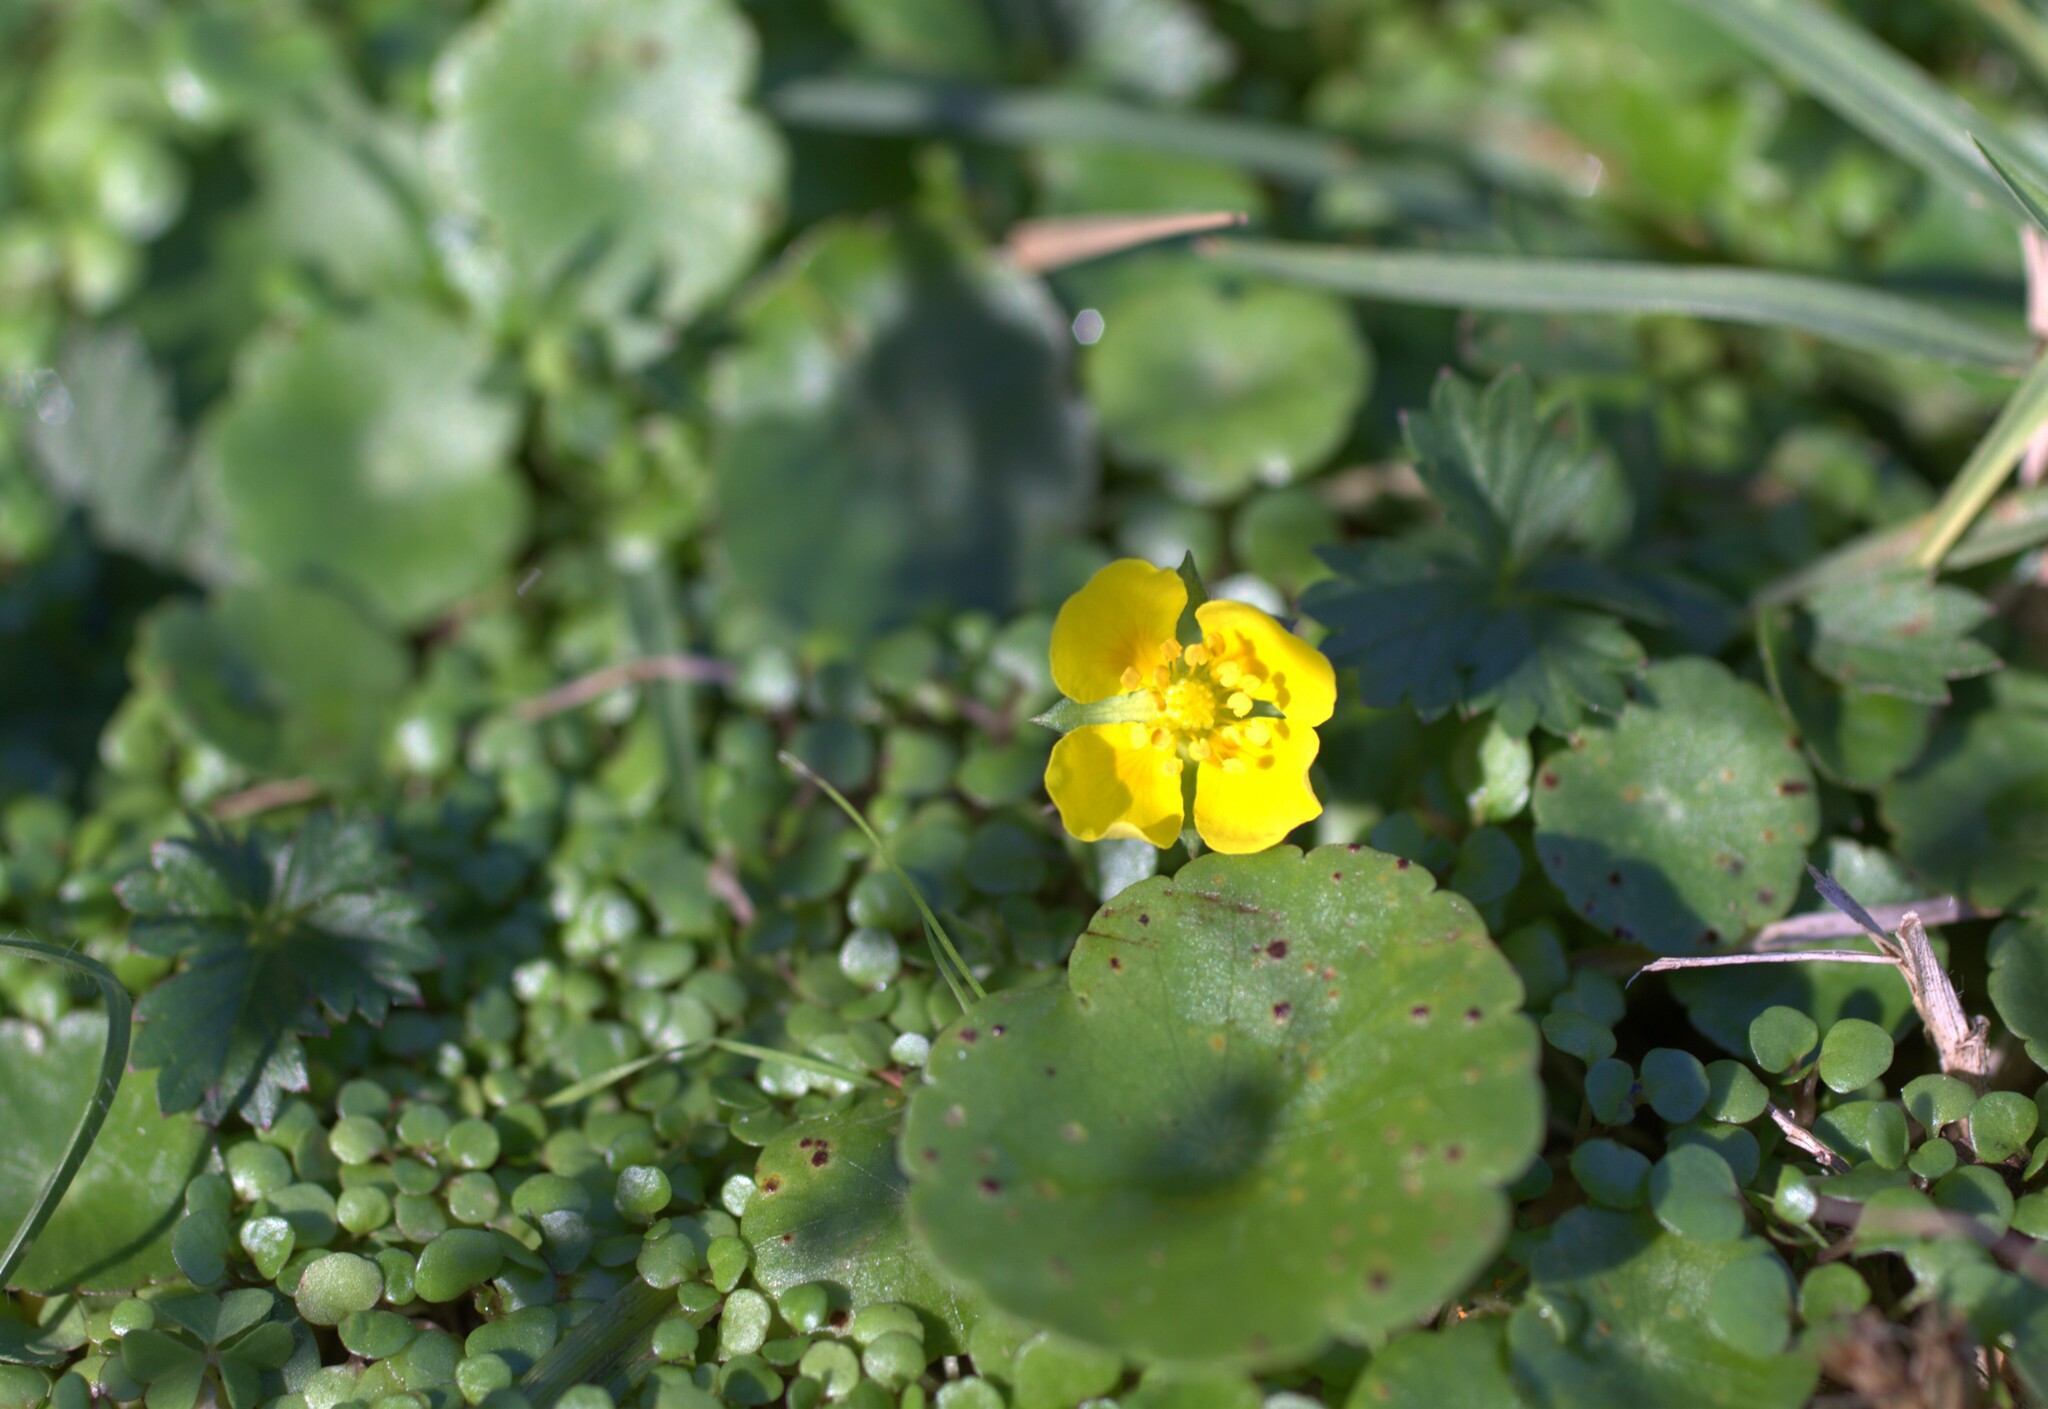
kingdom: Plantae
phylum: Tracheophyta
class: Magnoliopsida
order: Rosales
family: Rosaceae
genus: Potentilla
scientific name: Potentilla anglica
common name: Trailing tormentil
